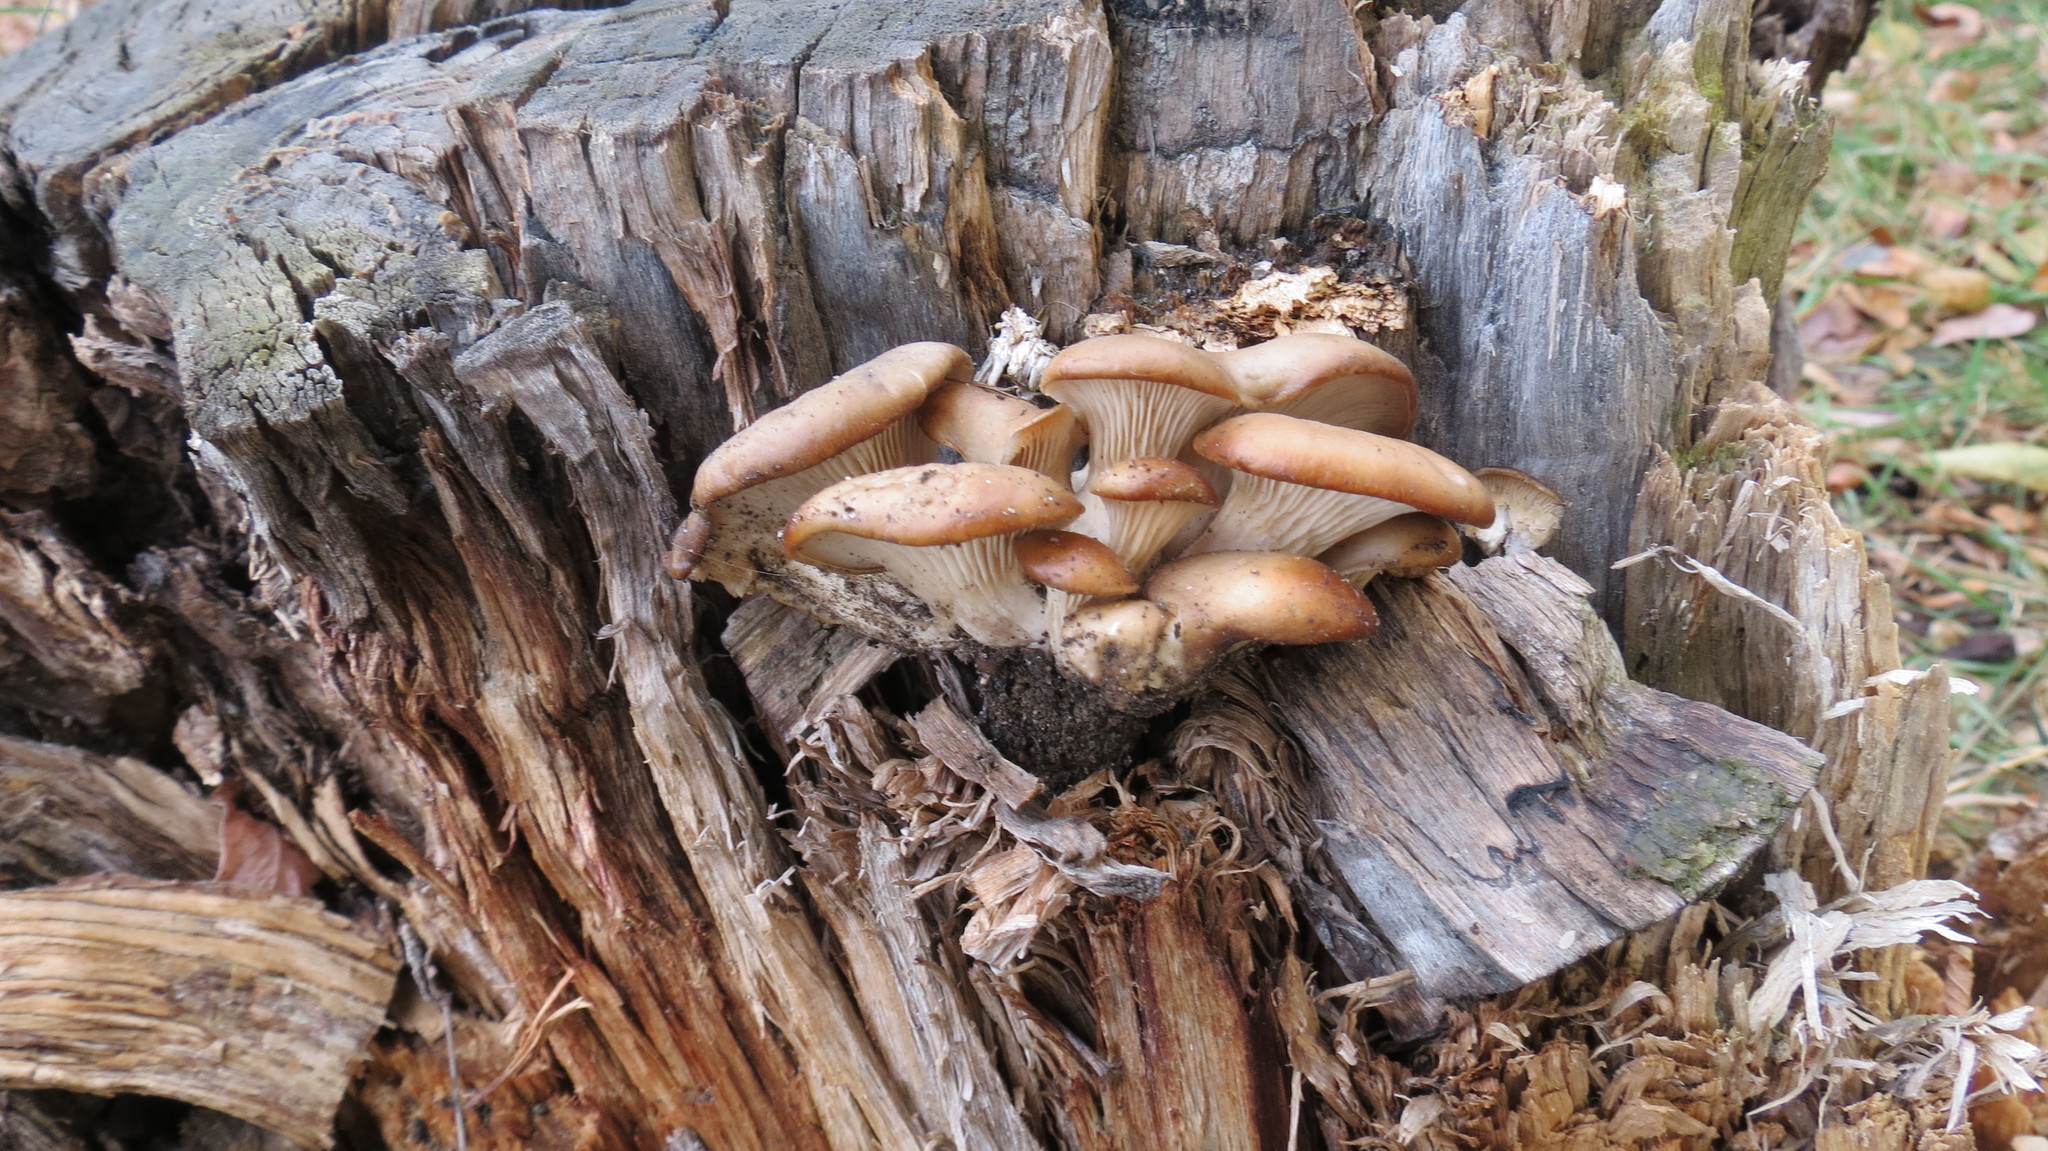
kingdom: Fungi
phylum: Basidiomycota
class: Agaricomycetes
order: Agaricales
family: Pleurotaceae
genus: Pleurotus
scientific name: Pleurotus ostreatus
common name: Oyster mushroom
